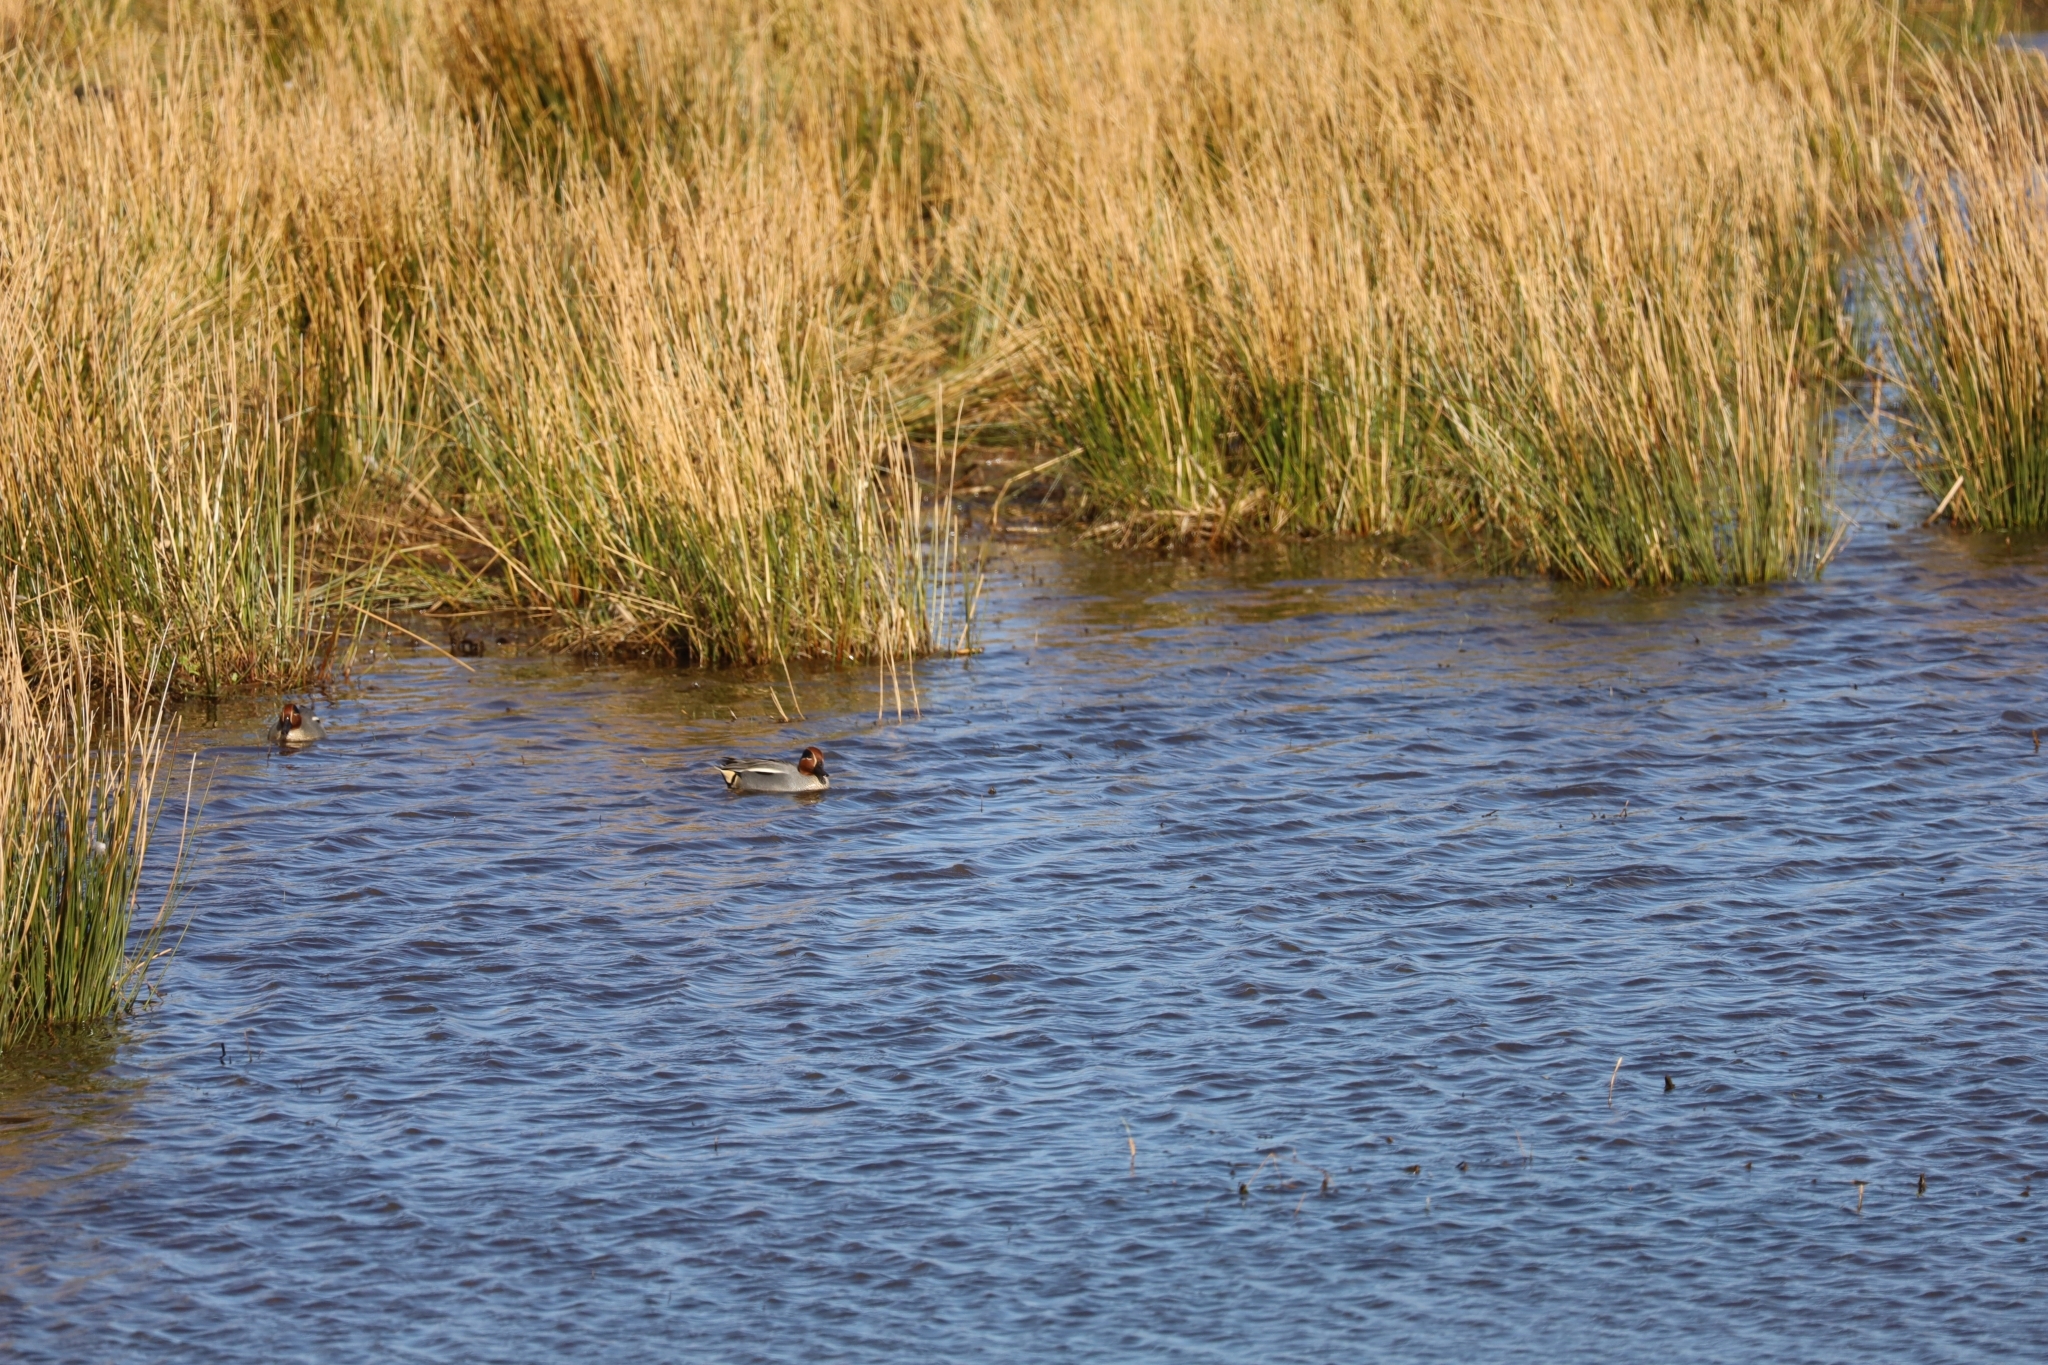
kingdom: Animalia
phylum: Chordata
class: Aves
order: Anseriformes
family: Anatidae
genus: Anas
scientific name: Anas crecca
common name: Eurasian teal
